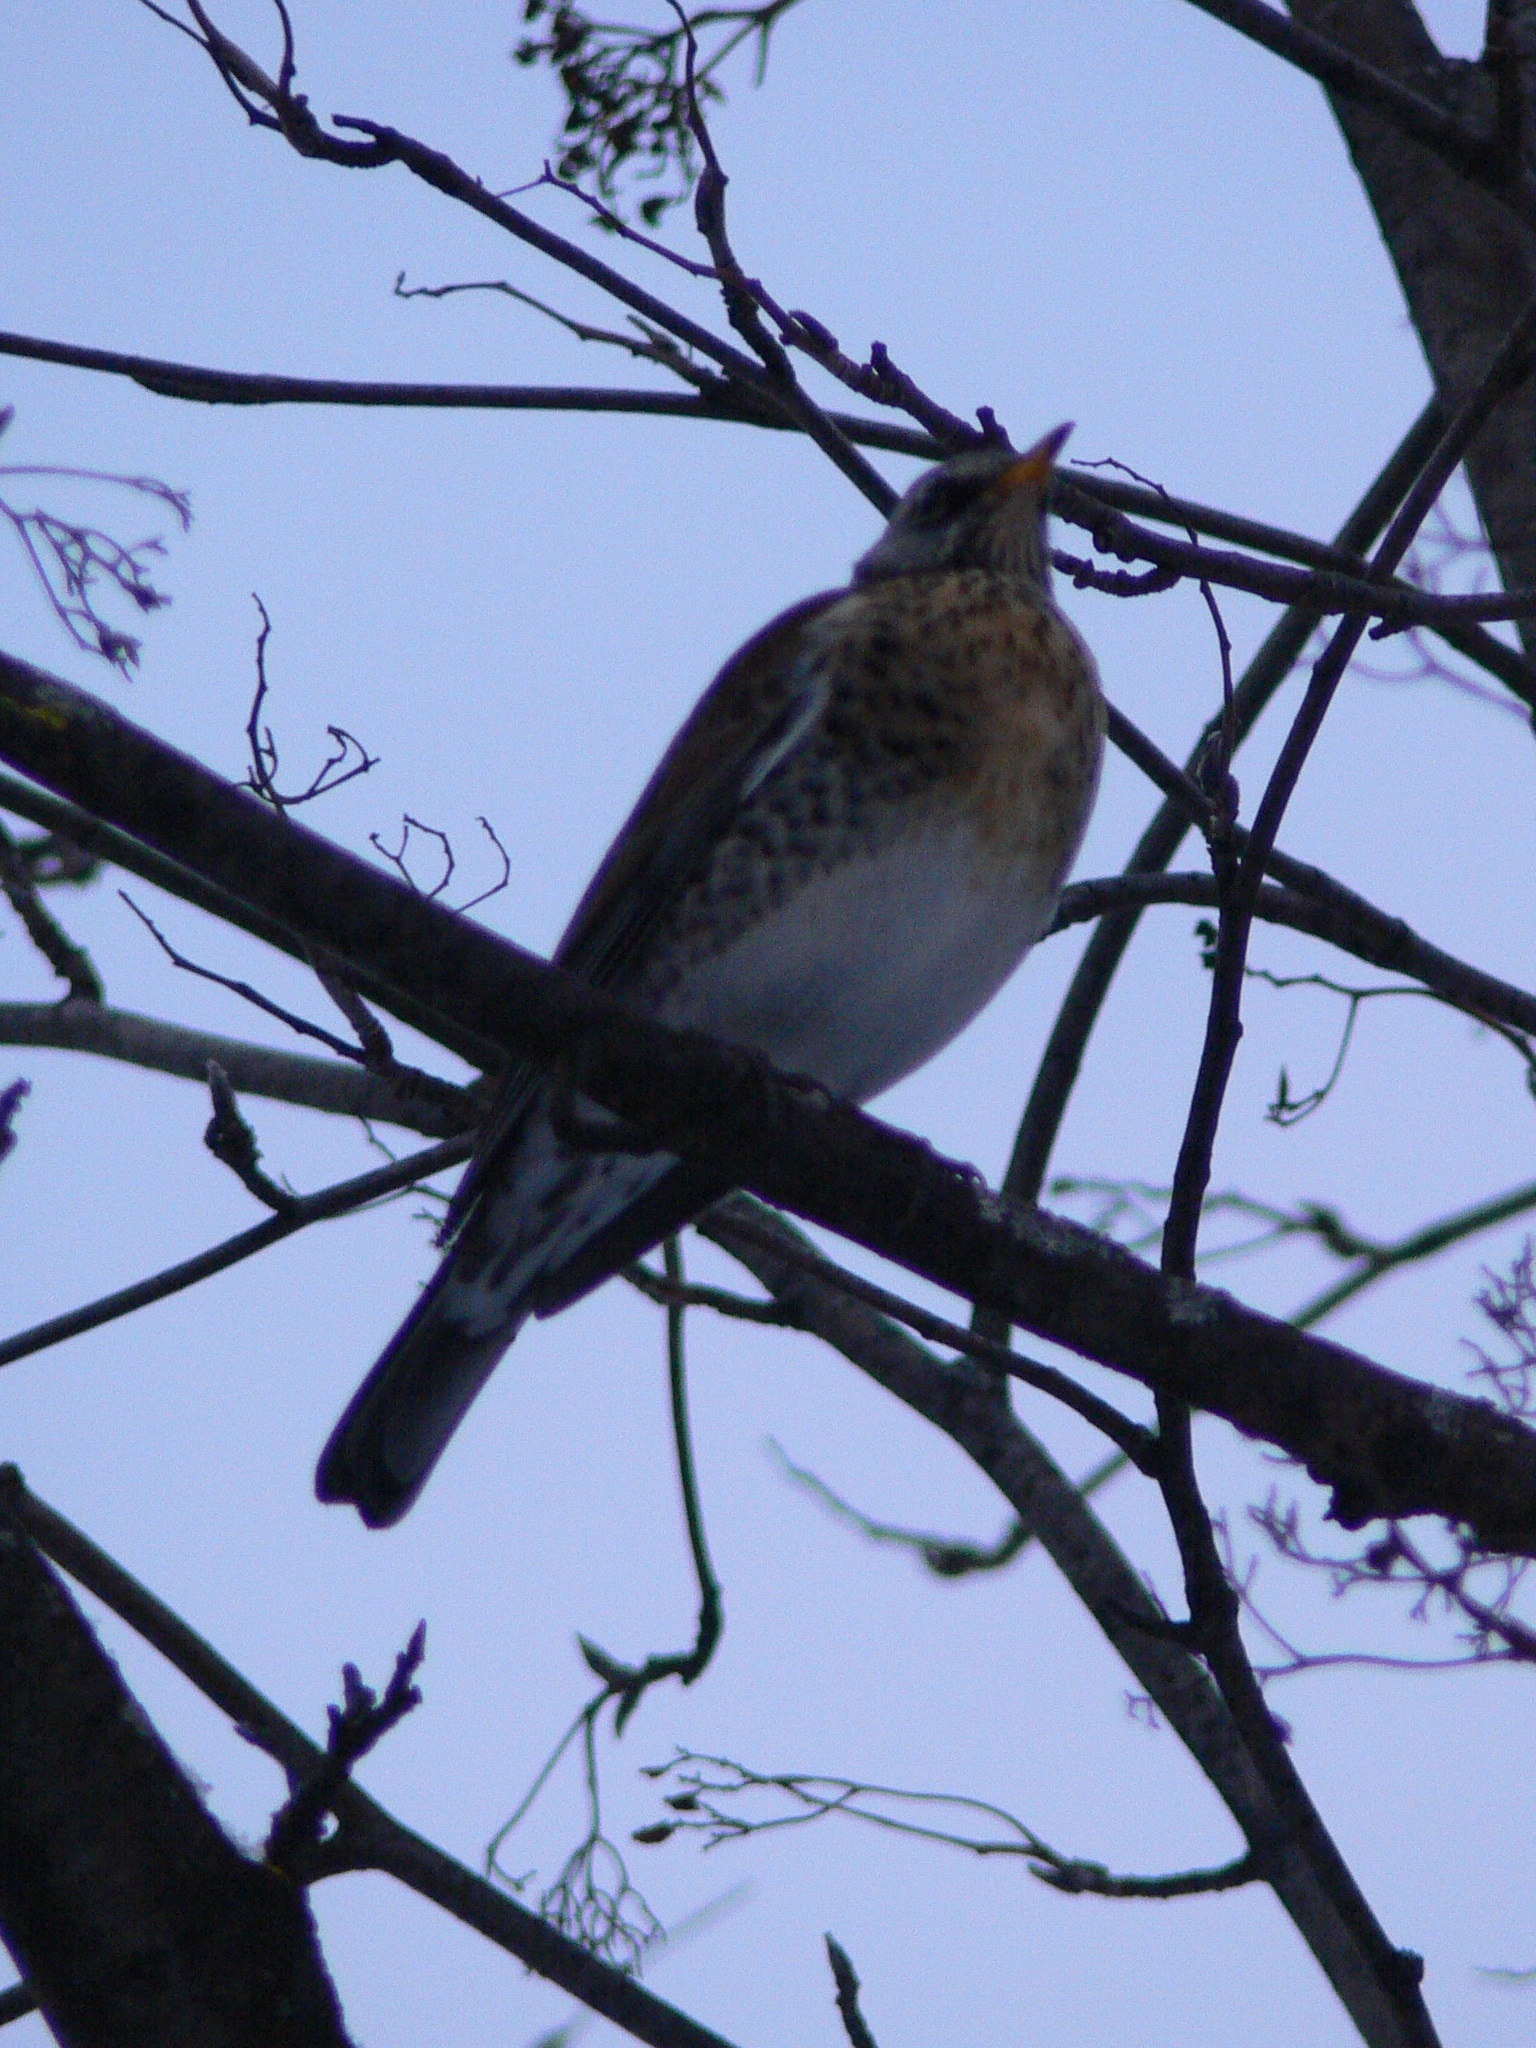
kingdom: Animalia
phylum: Chordata
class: Aves
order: Passeriformes
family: Turdidae
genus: Turdus
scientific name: Turdus pilaris
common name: Fieldfare
